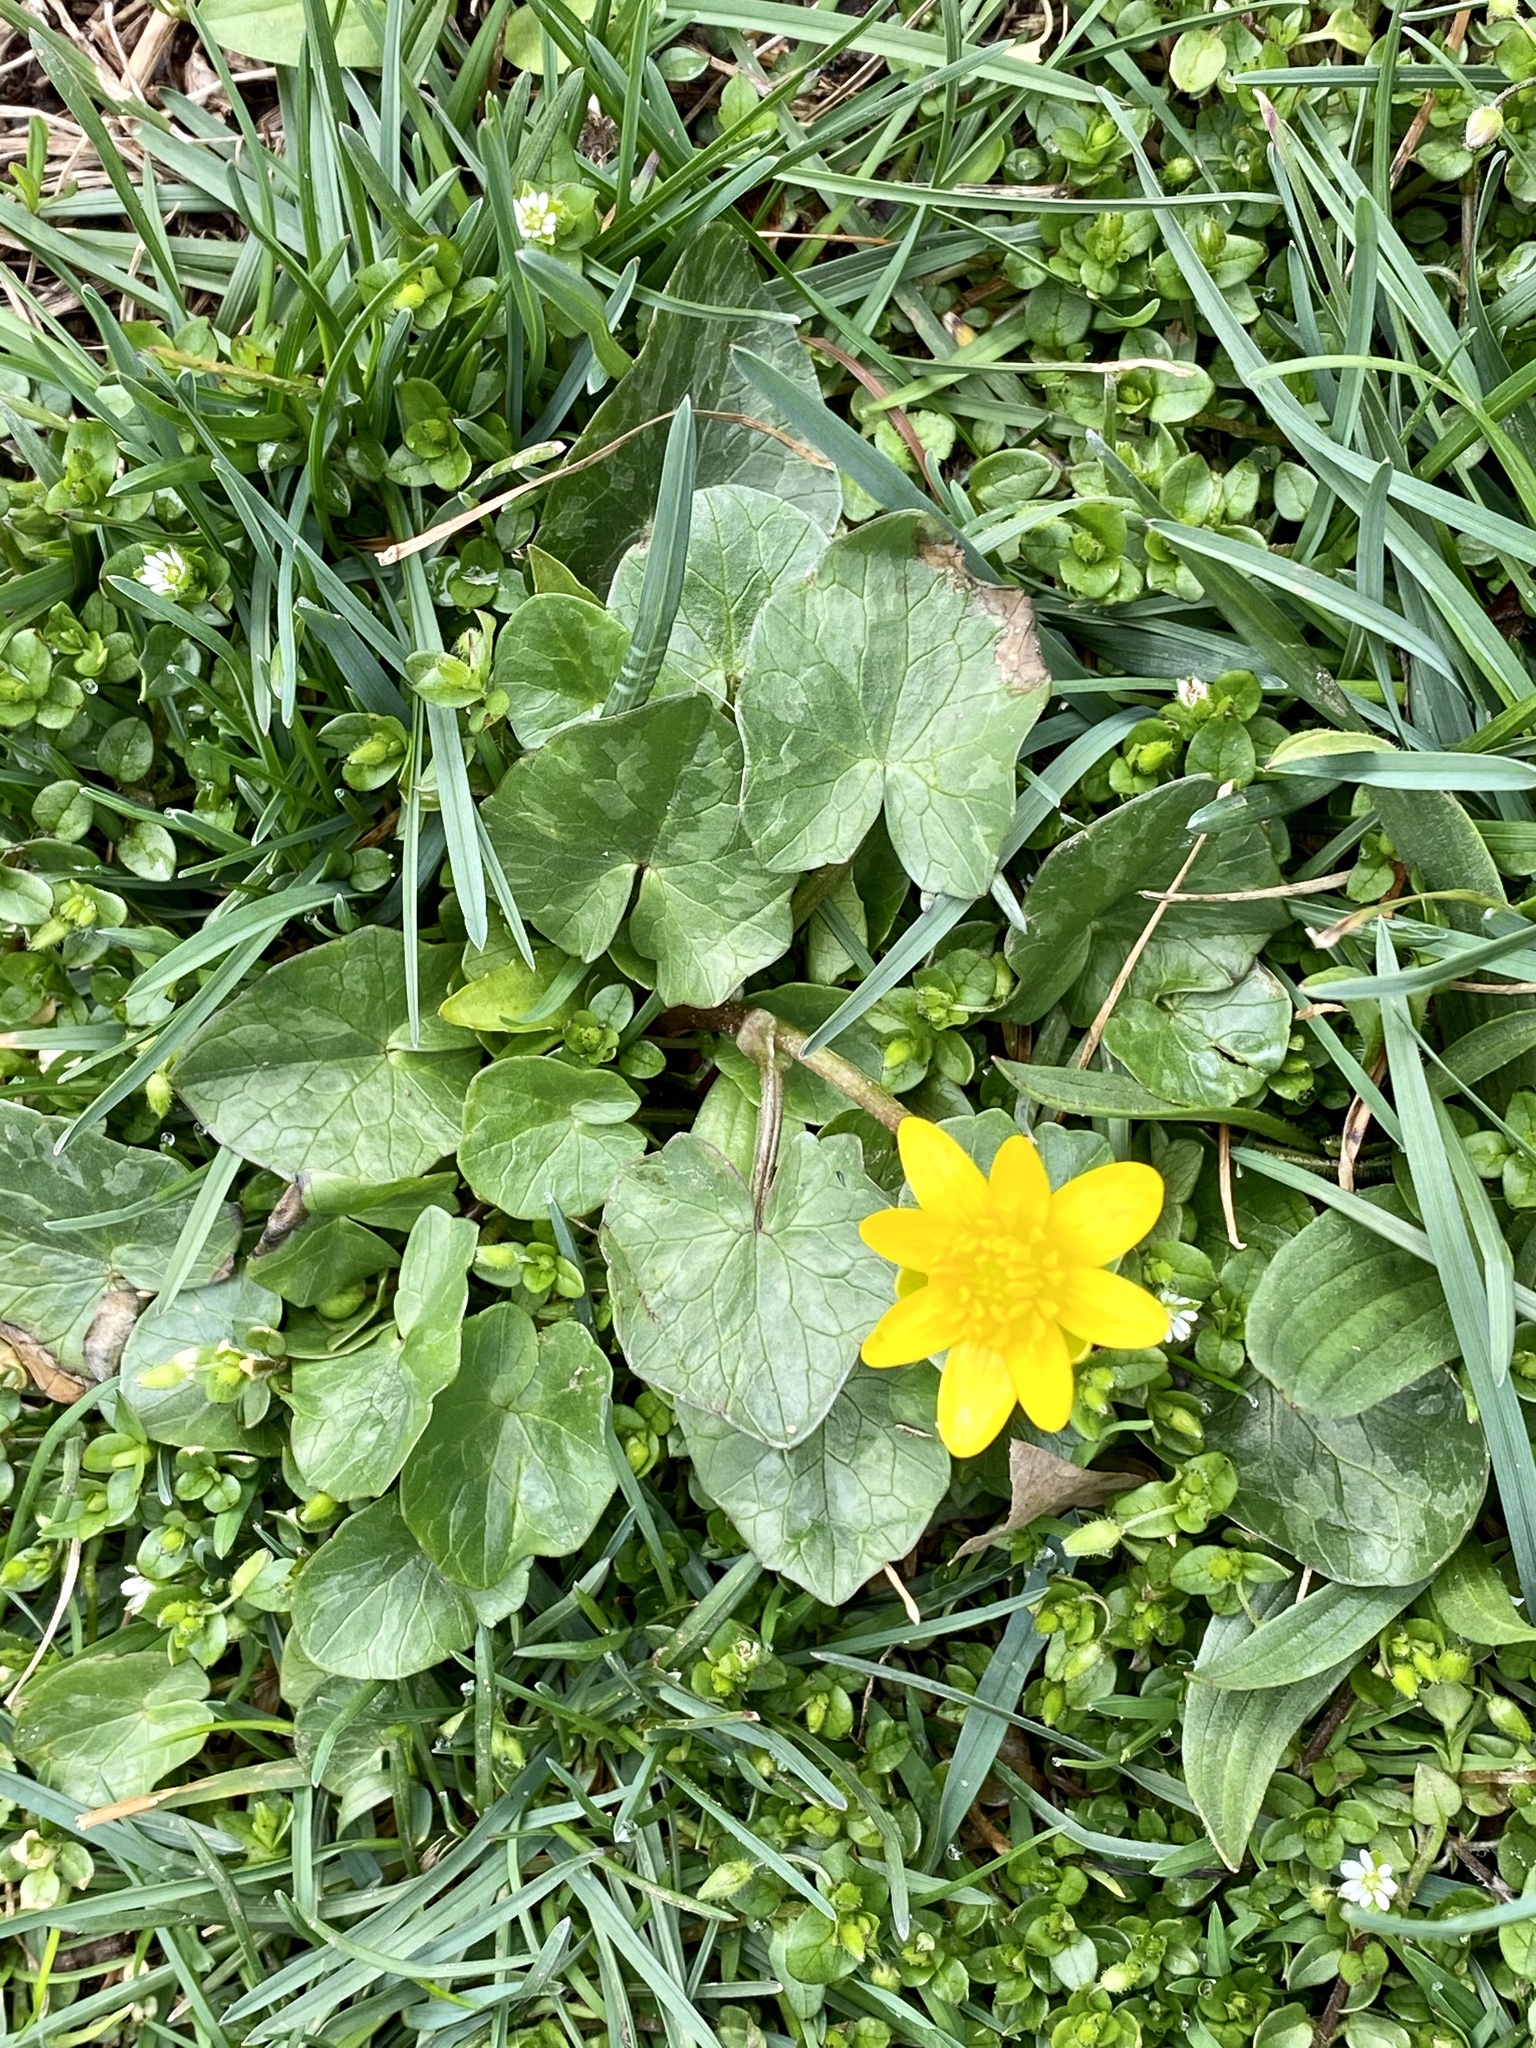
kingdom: Plantae
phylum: Tracheophyta
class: Magnoliopsida
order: Ranunculales
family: Ranunculaceae
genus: Ficaria
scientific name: Ficaria verna
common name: Lesser celandine
